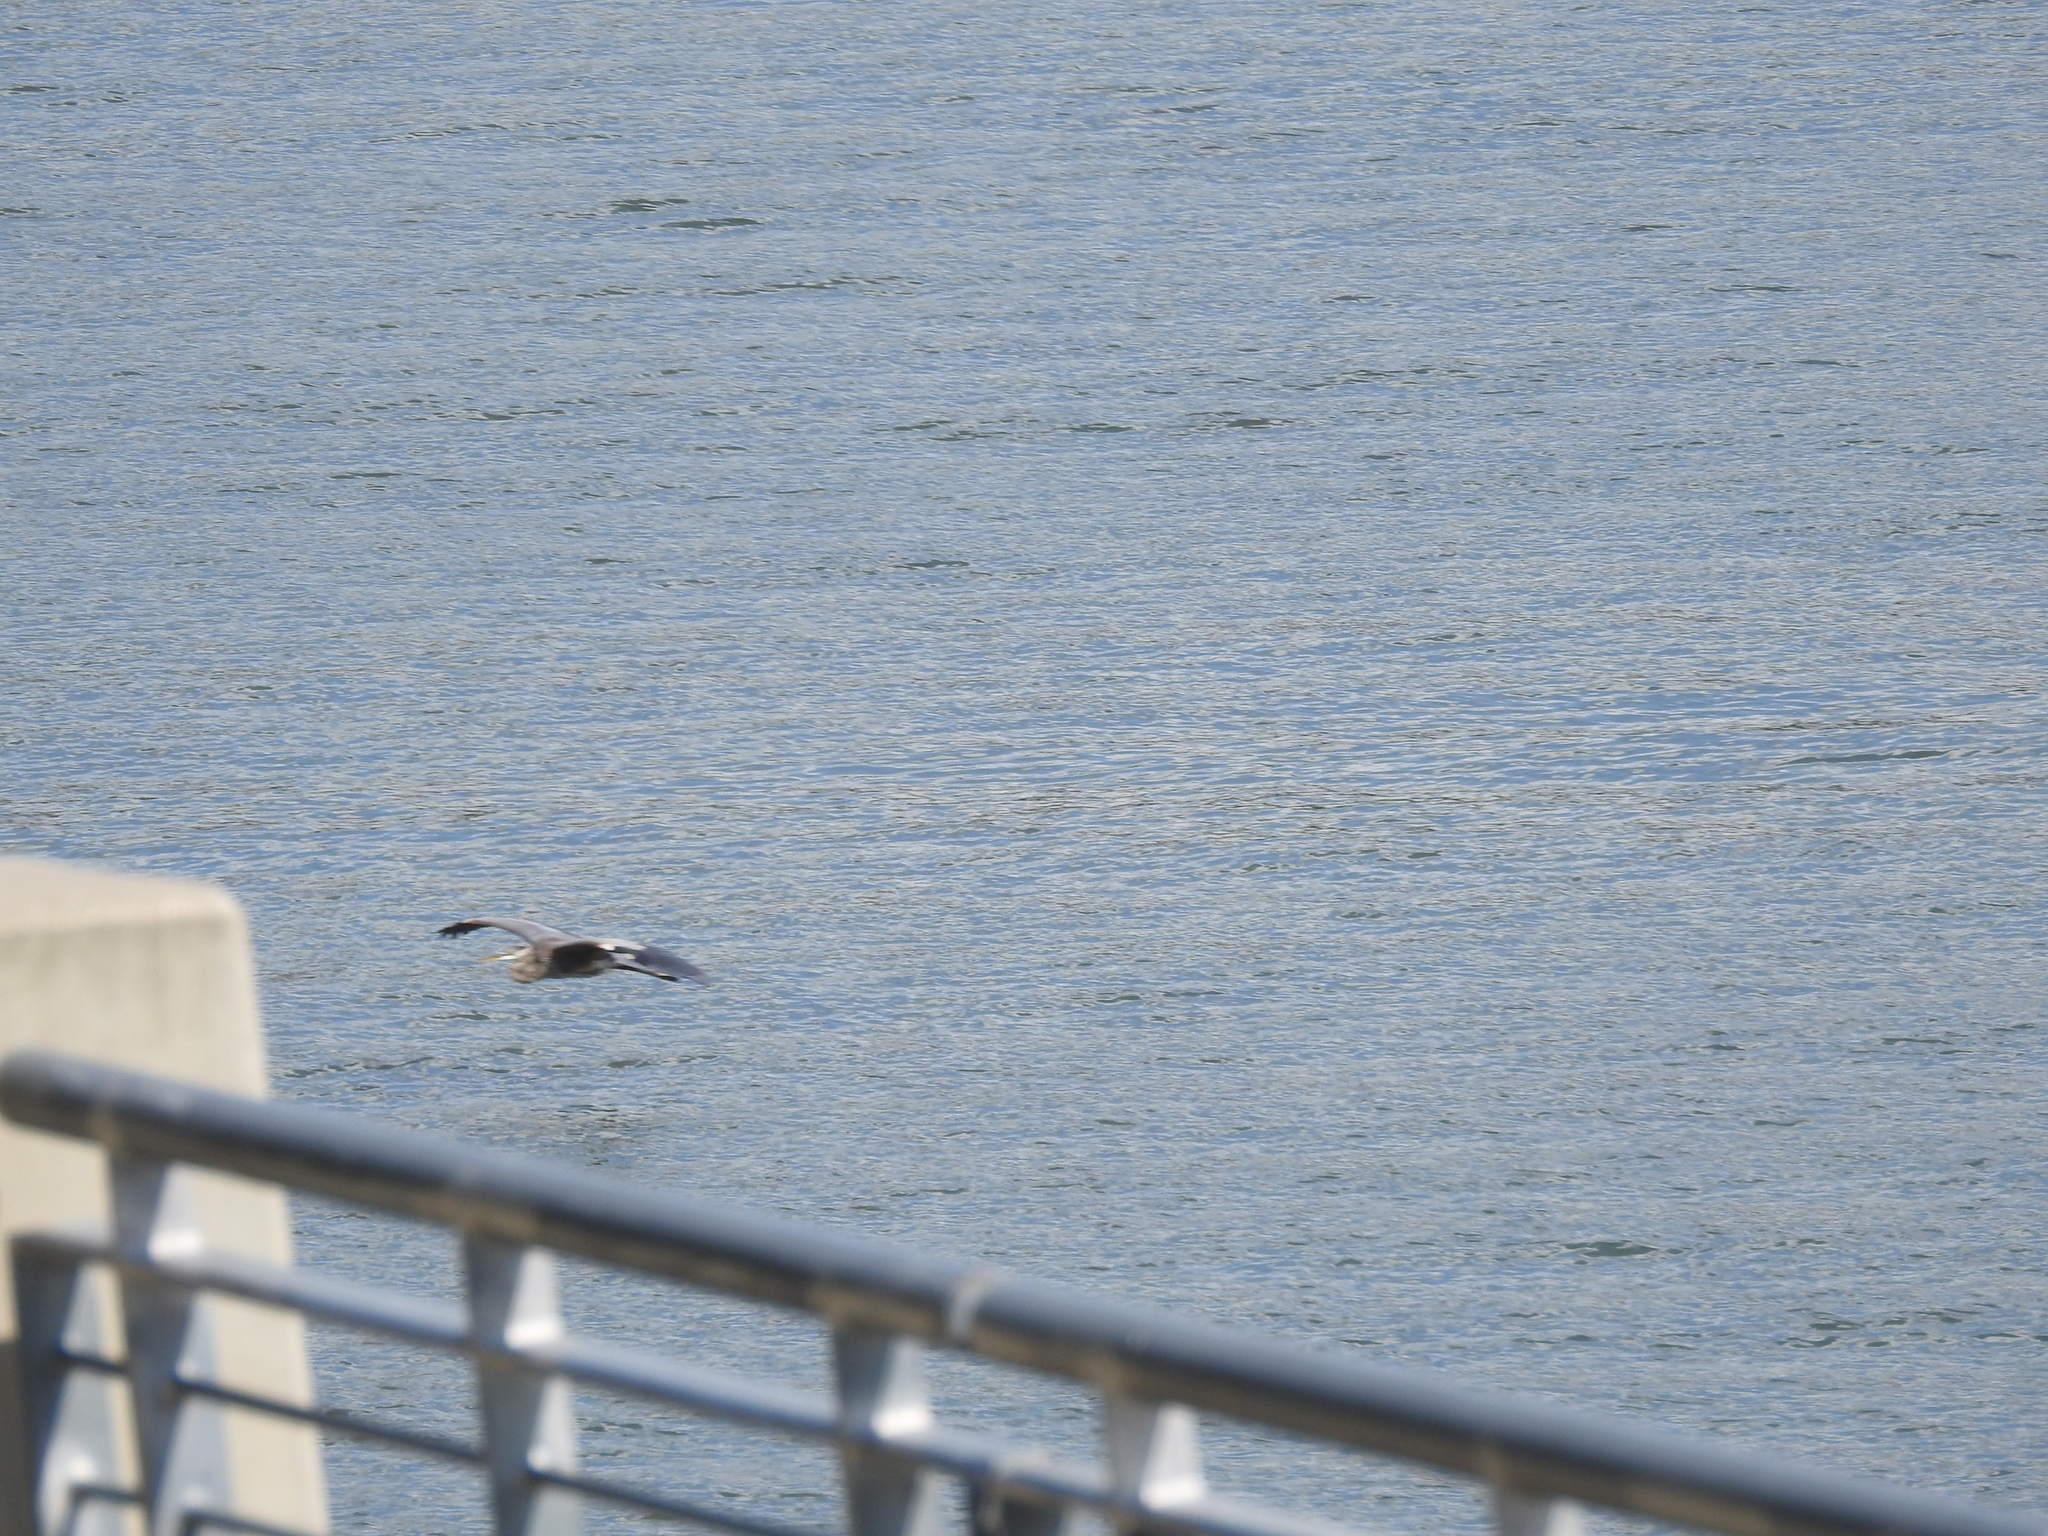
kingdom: Animalia
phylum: Chordata
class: Aves
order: Pelecaniformes
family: Ardeidae
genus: Ardea
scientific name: Ardea herodias
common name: Great blue heron
